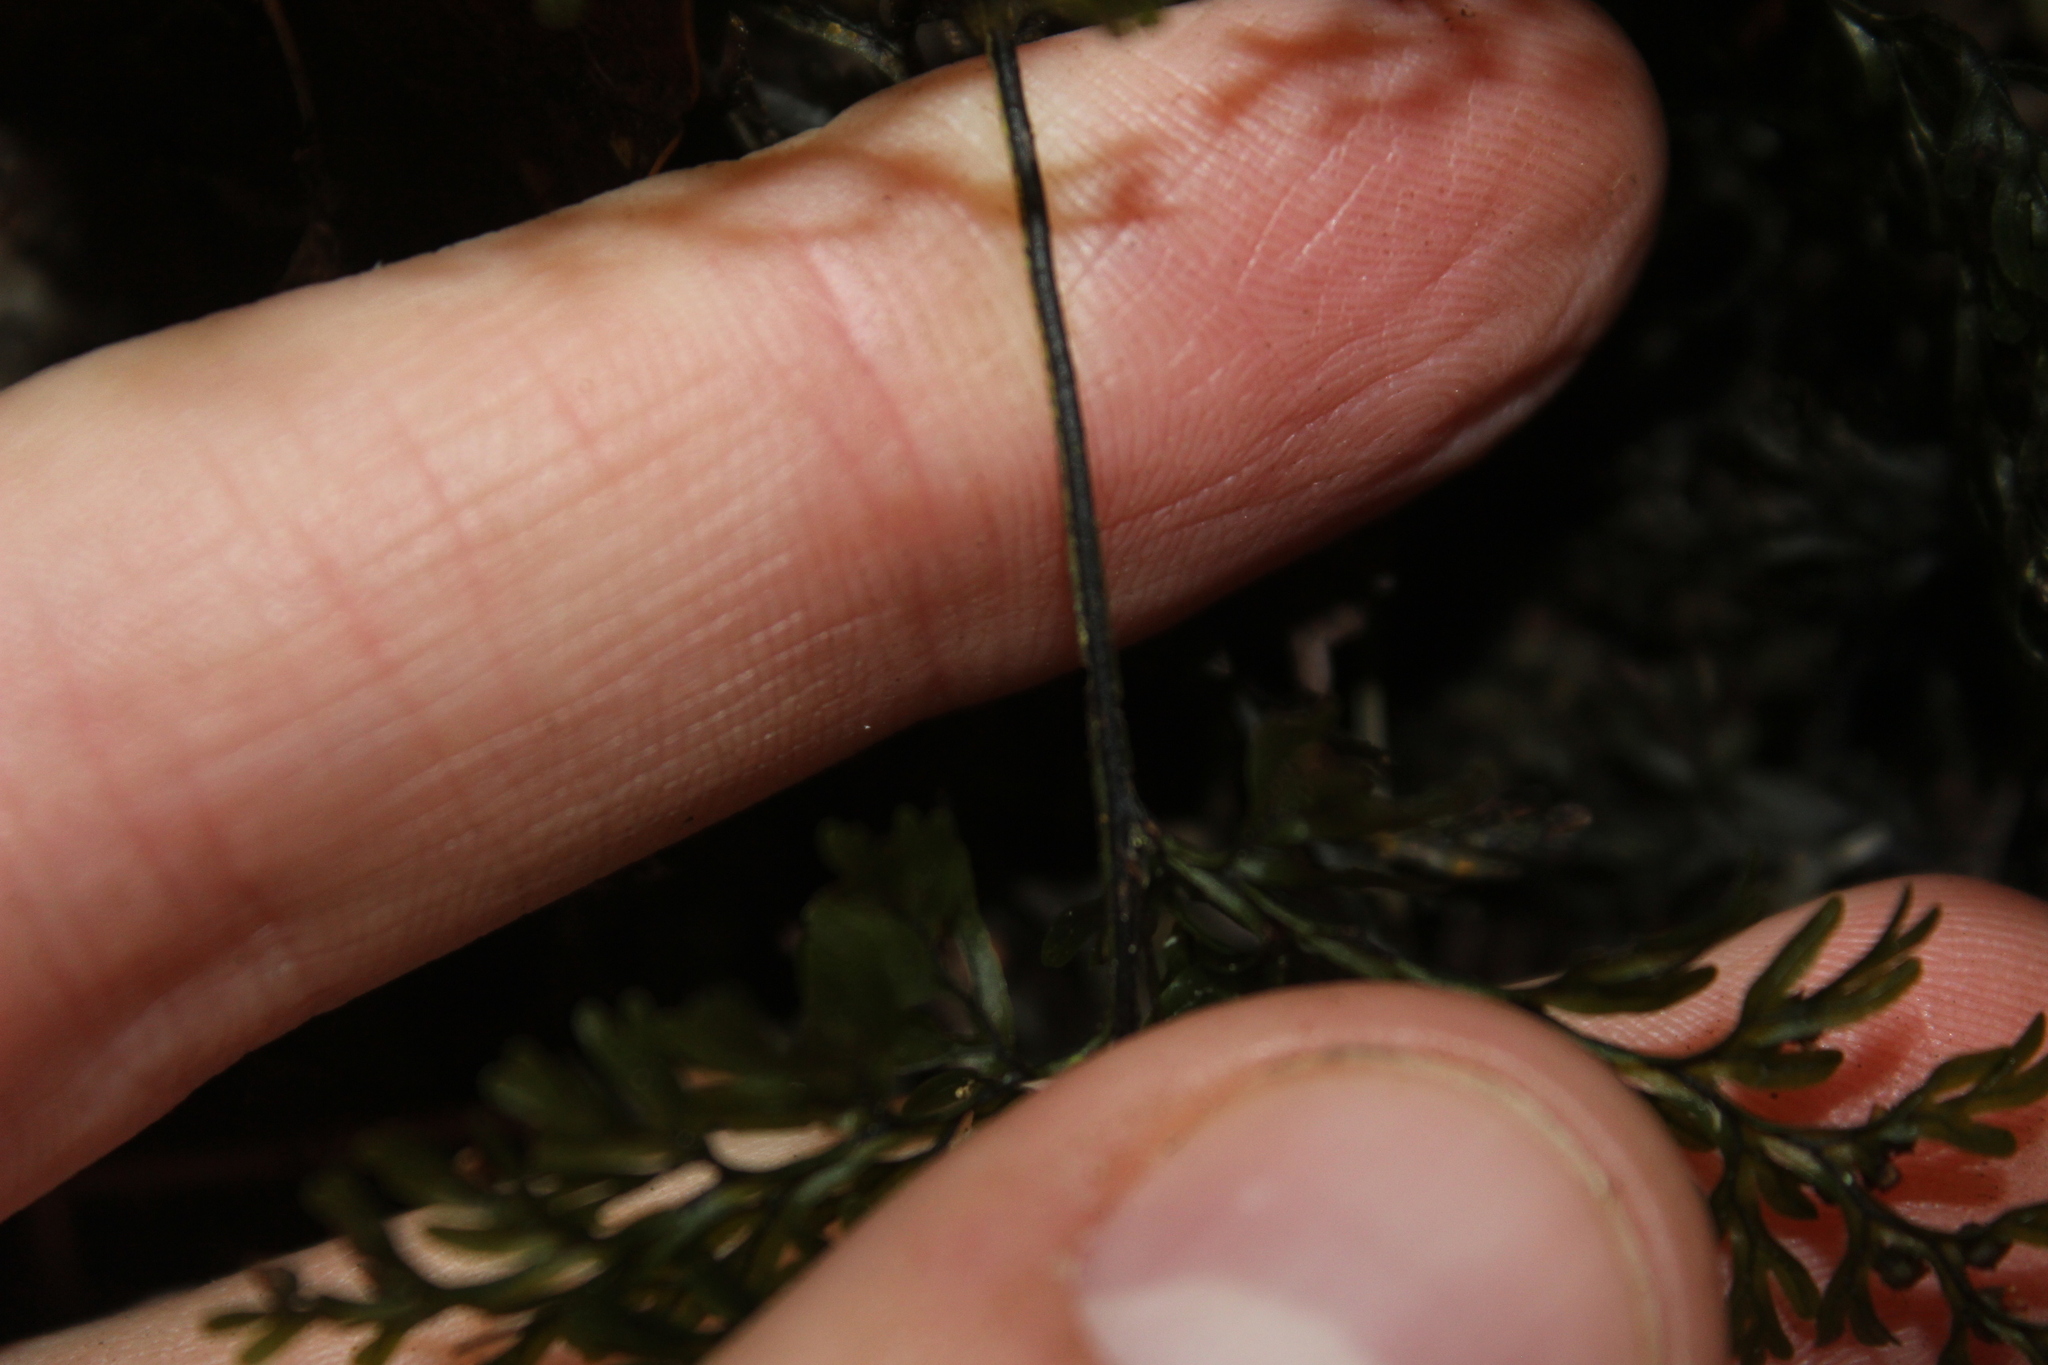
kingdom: Plantae
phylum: Tracheophyta
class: Polypodiopsida
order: Hymenophyllales
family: Hymenophyllaceae
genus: Hymenophyllum
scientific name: Hymenophyllum sanguinolentum
